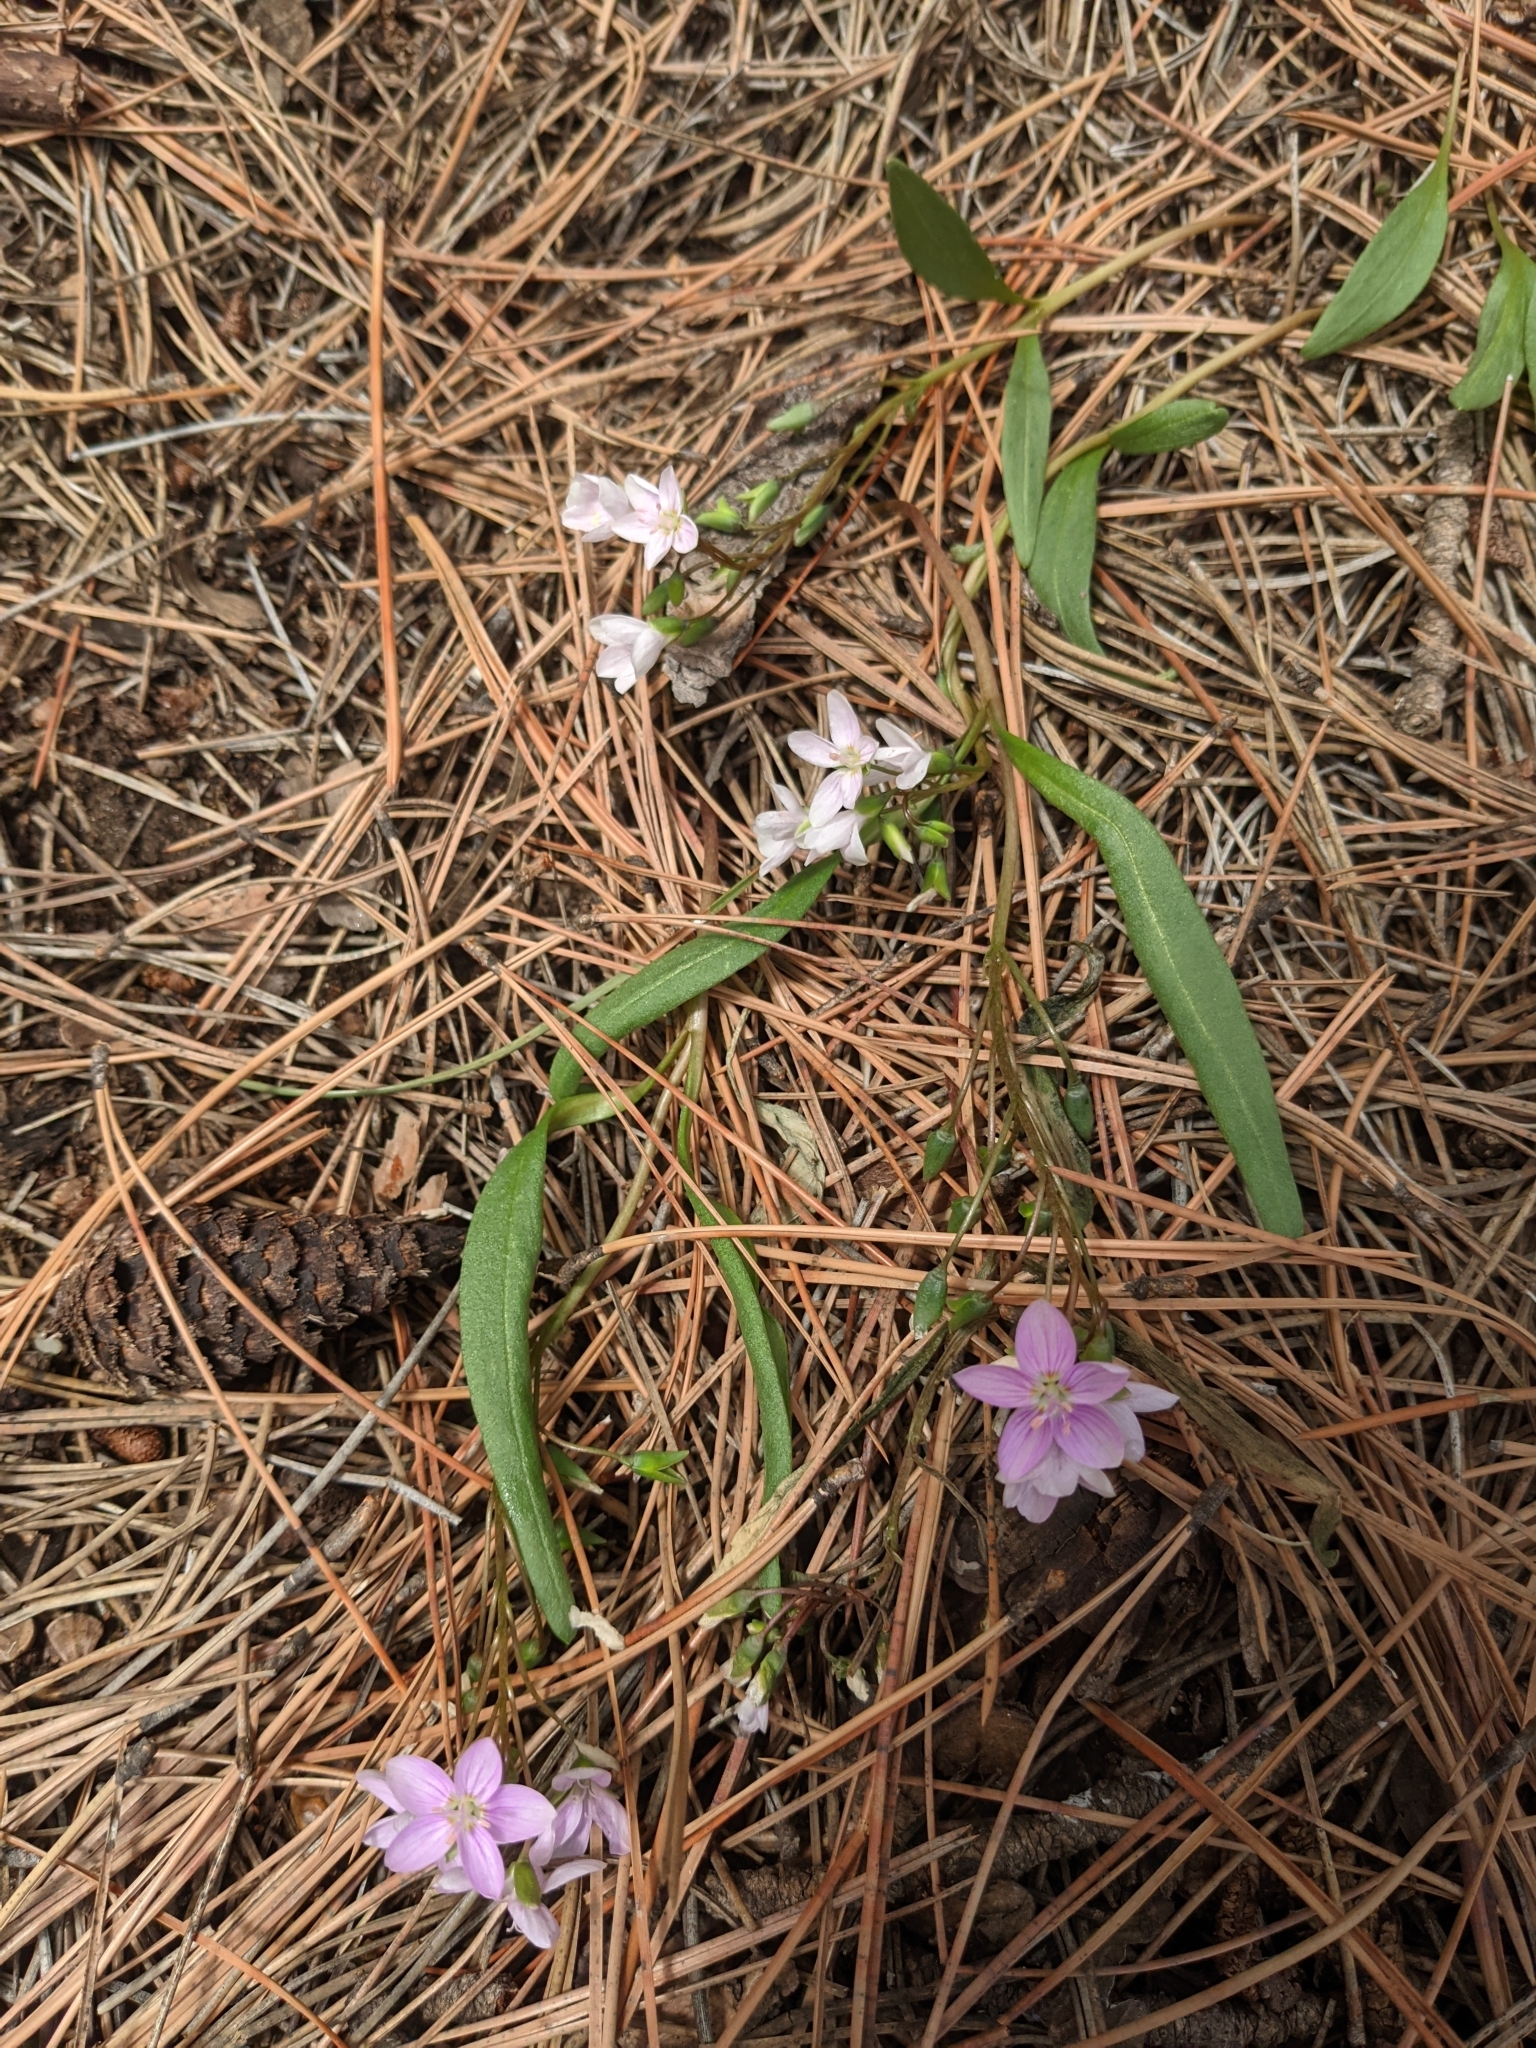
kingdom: Plantae
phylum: Tracheophyta
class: Magnoliopsida
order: Caryophyllales
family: Montiaceae
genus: Claytonia
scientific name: Claytonia rosea
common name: Rocky mountain spring-beauty
